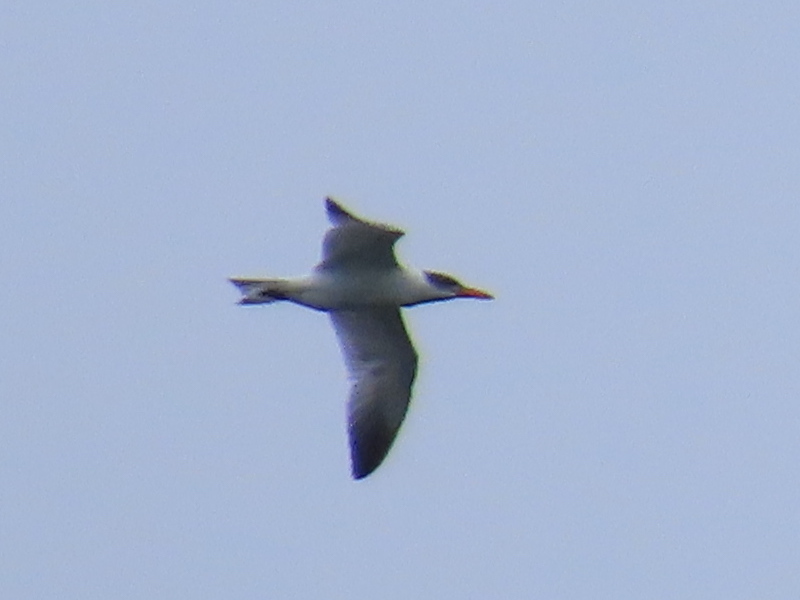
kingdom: Animalia
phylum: Chordata
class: Aves
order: Charadriiformes
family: Laridae
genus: Hydroprogne
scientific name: Hydroprogne caspia
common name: Caspian tern
